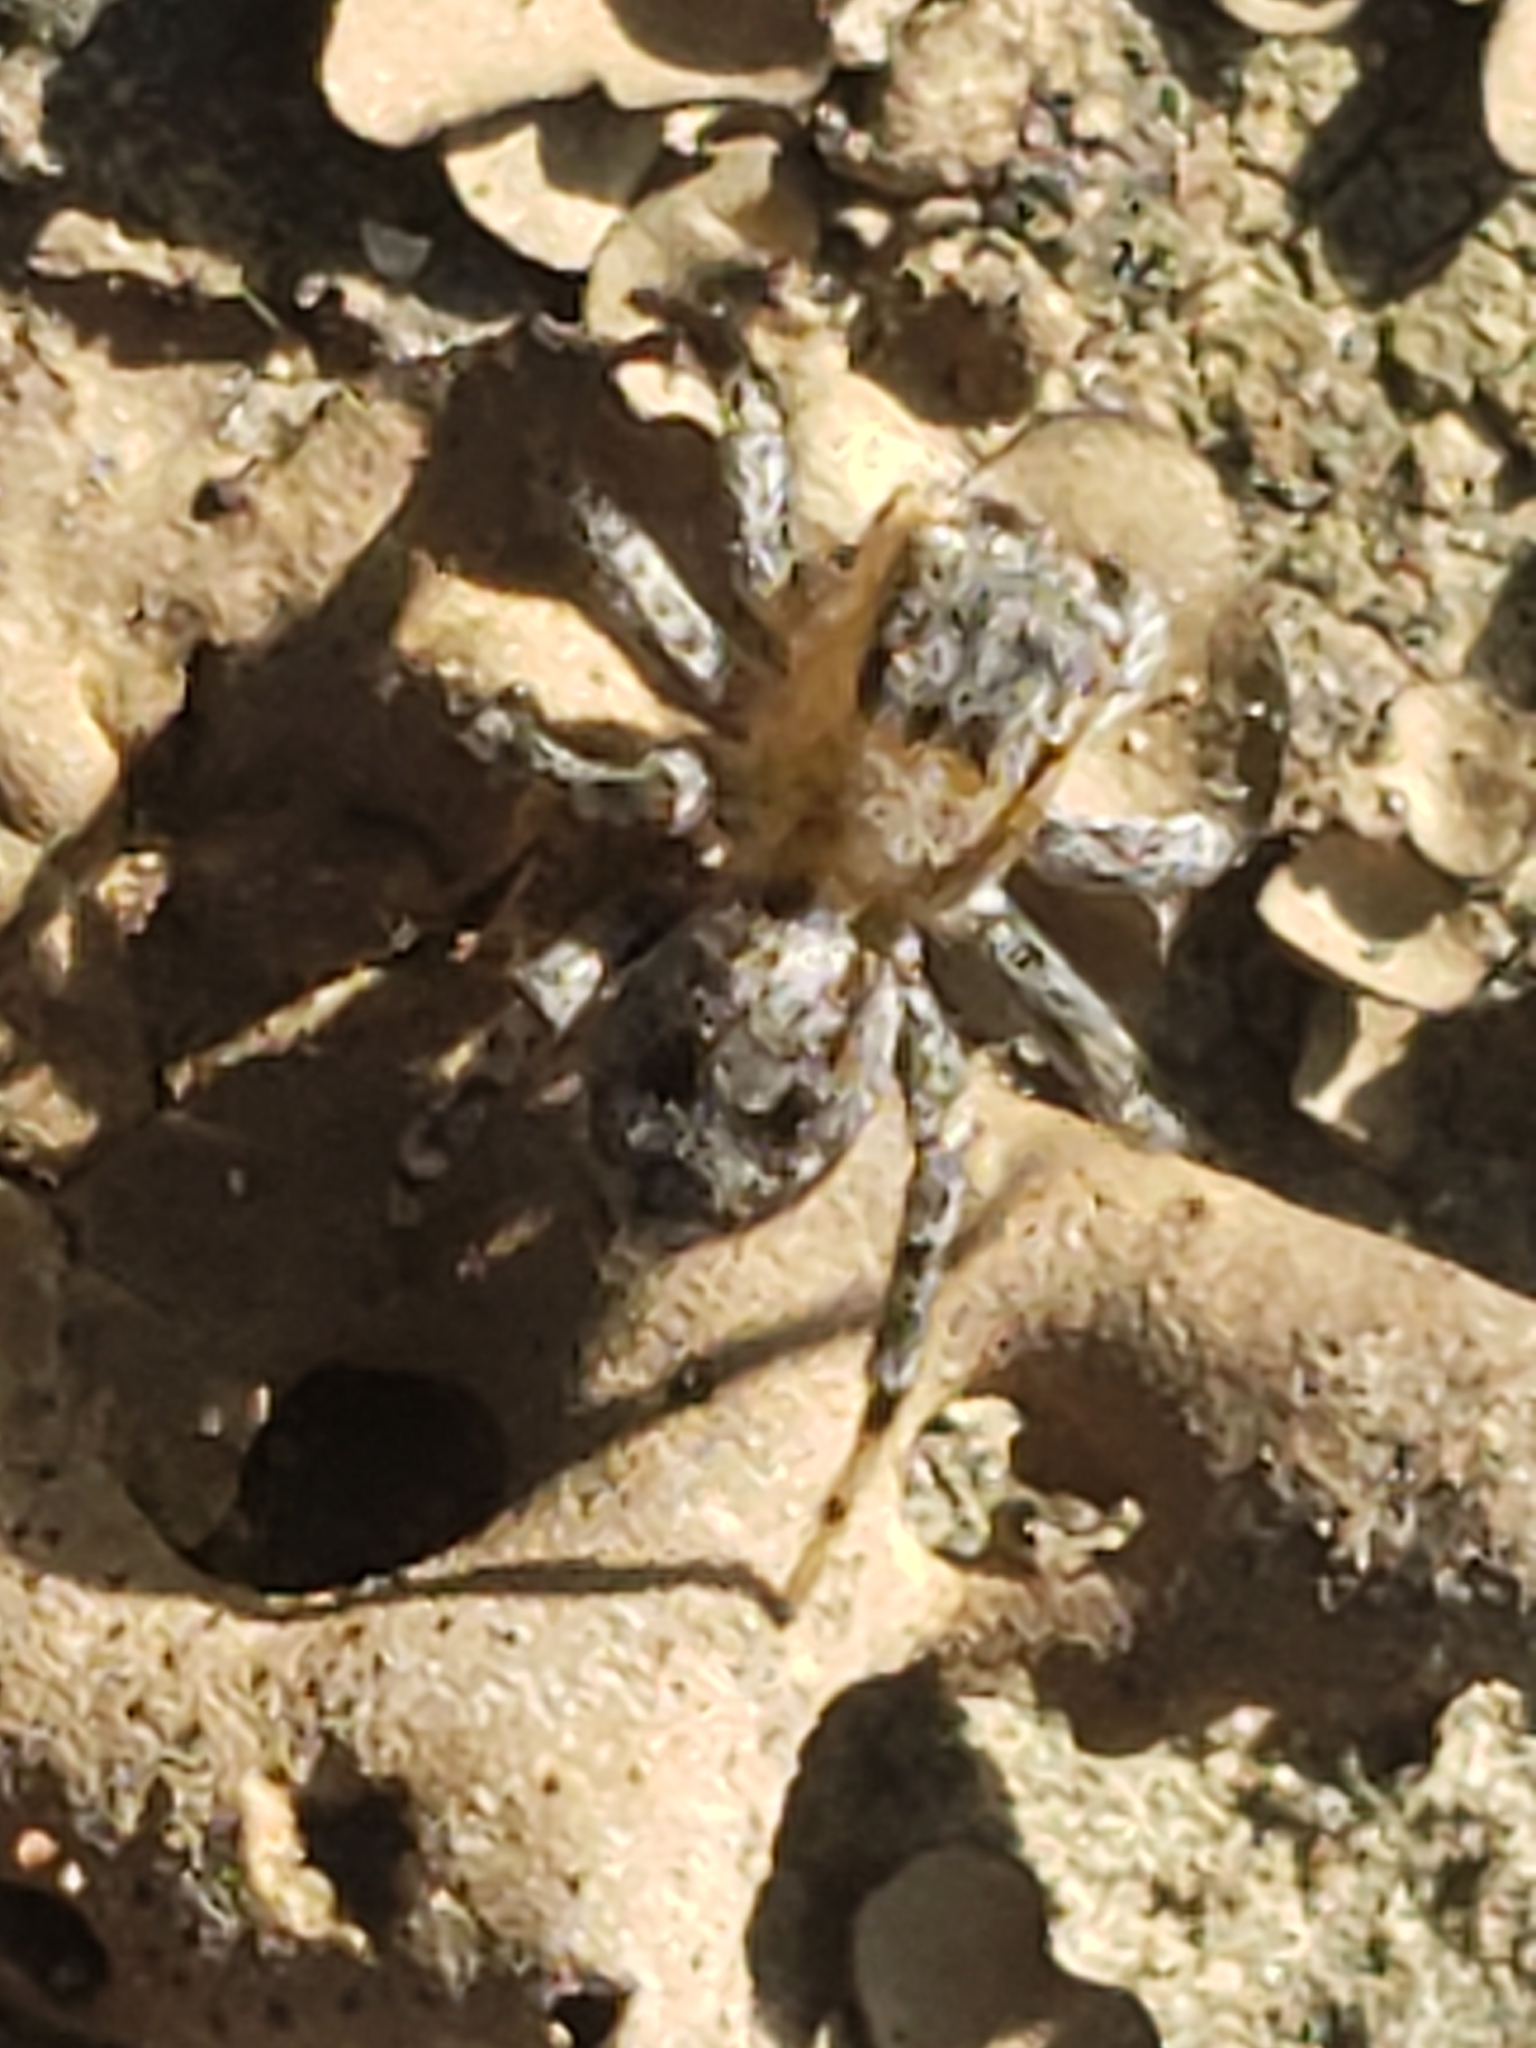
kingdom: Animalia
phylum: Arthropoda
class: Arachnida
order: Araneae
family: Salticidae
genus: Naphrys
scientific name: Naphrys pulex
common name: Flea jumping spider
